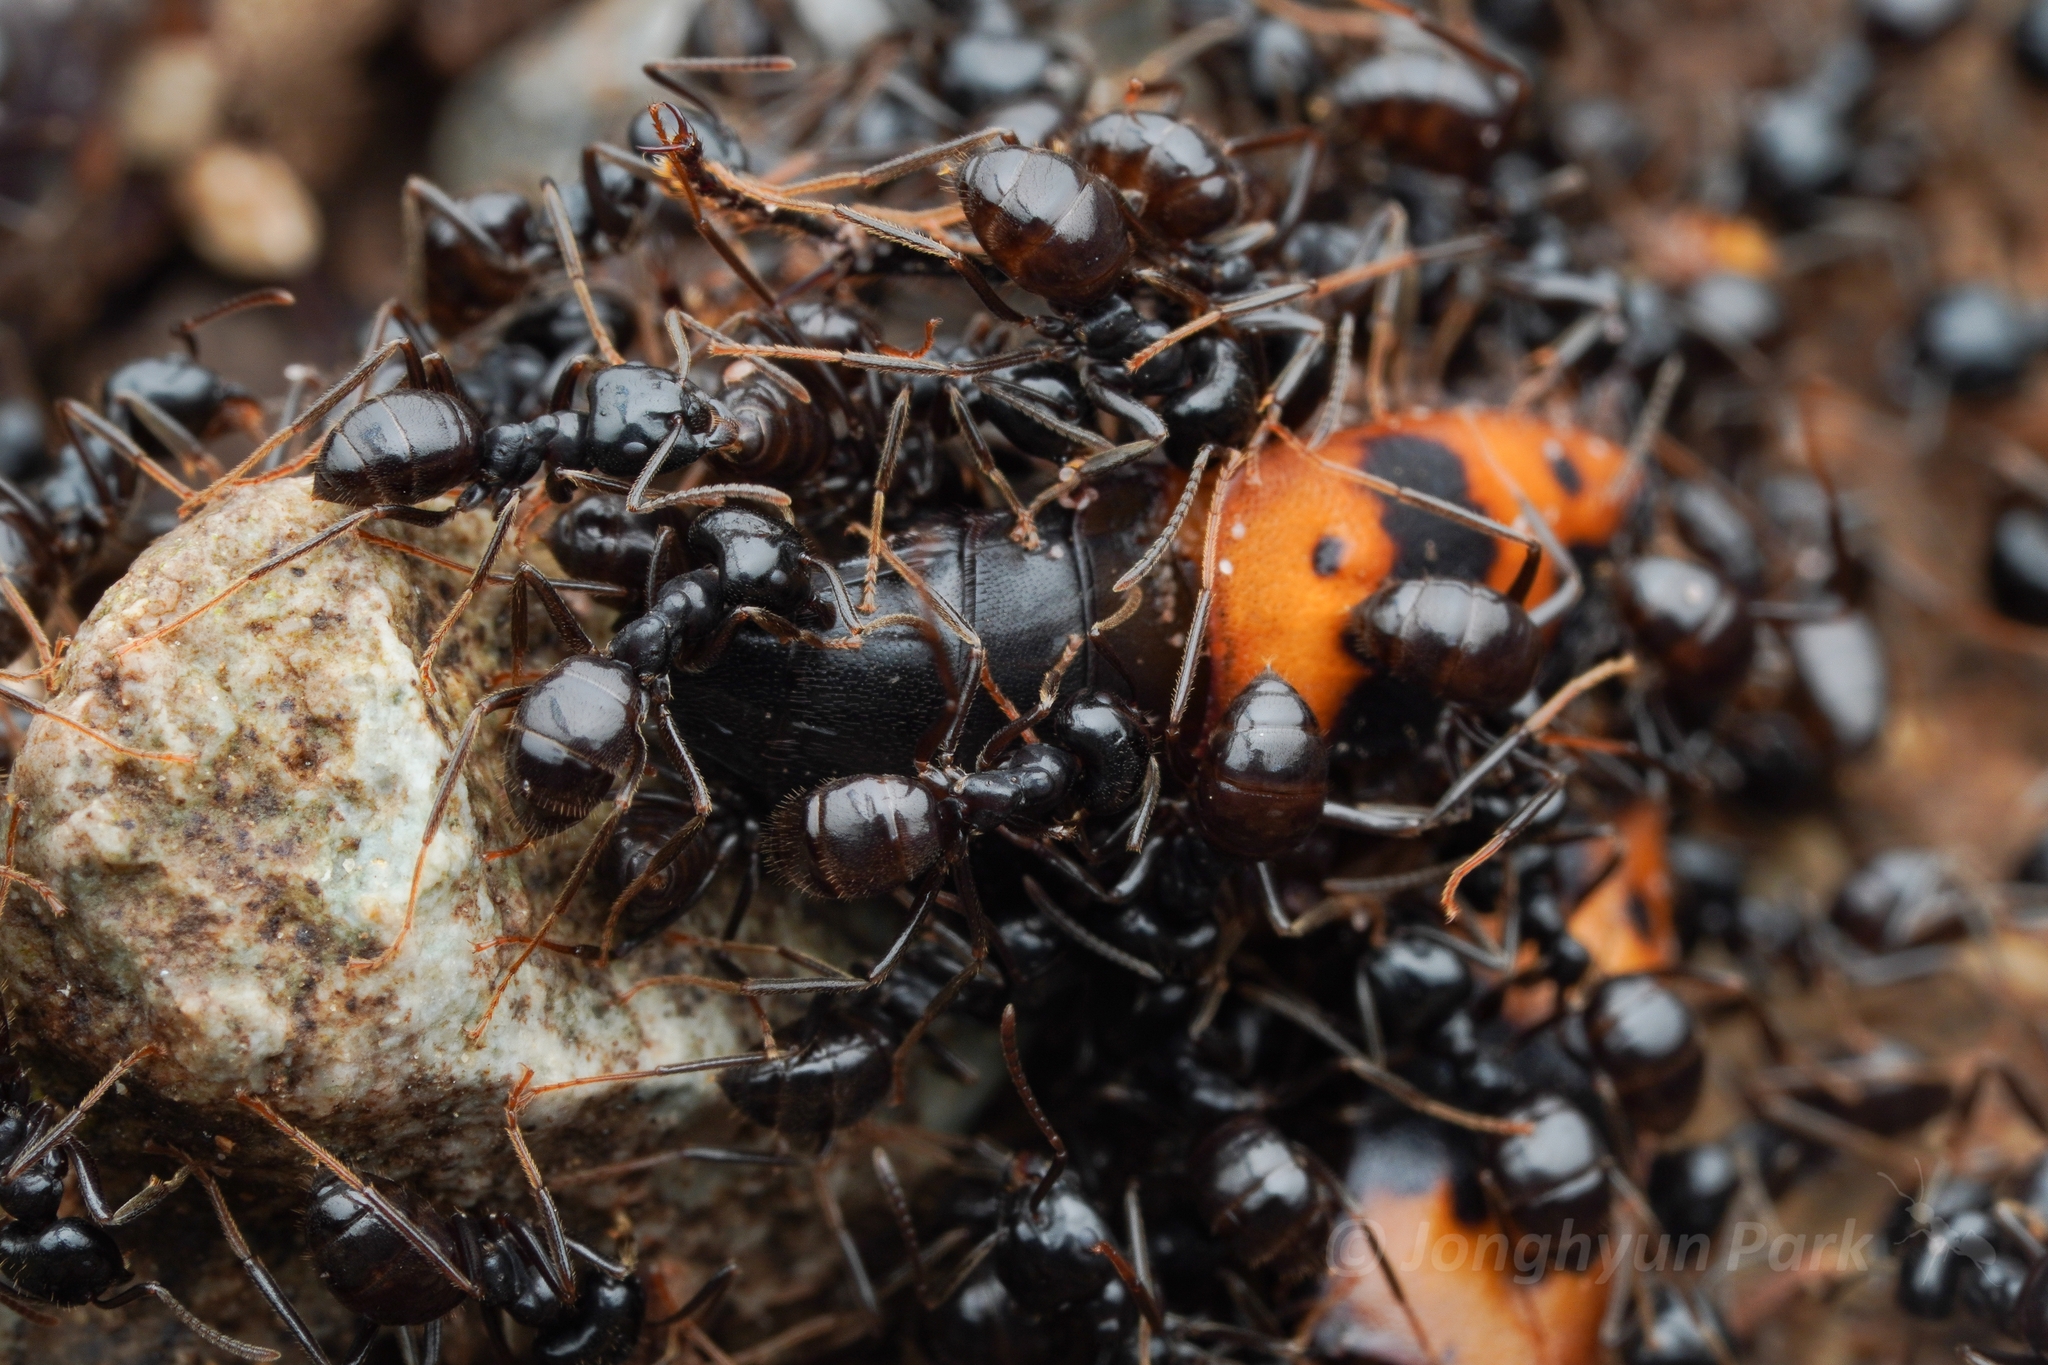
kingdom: Animalia
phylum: Arthropoda
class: Insecta
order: Hymenoptera
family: Formicidae
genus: Lasius
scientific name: Lasius spathepus
